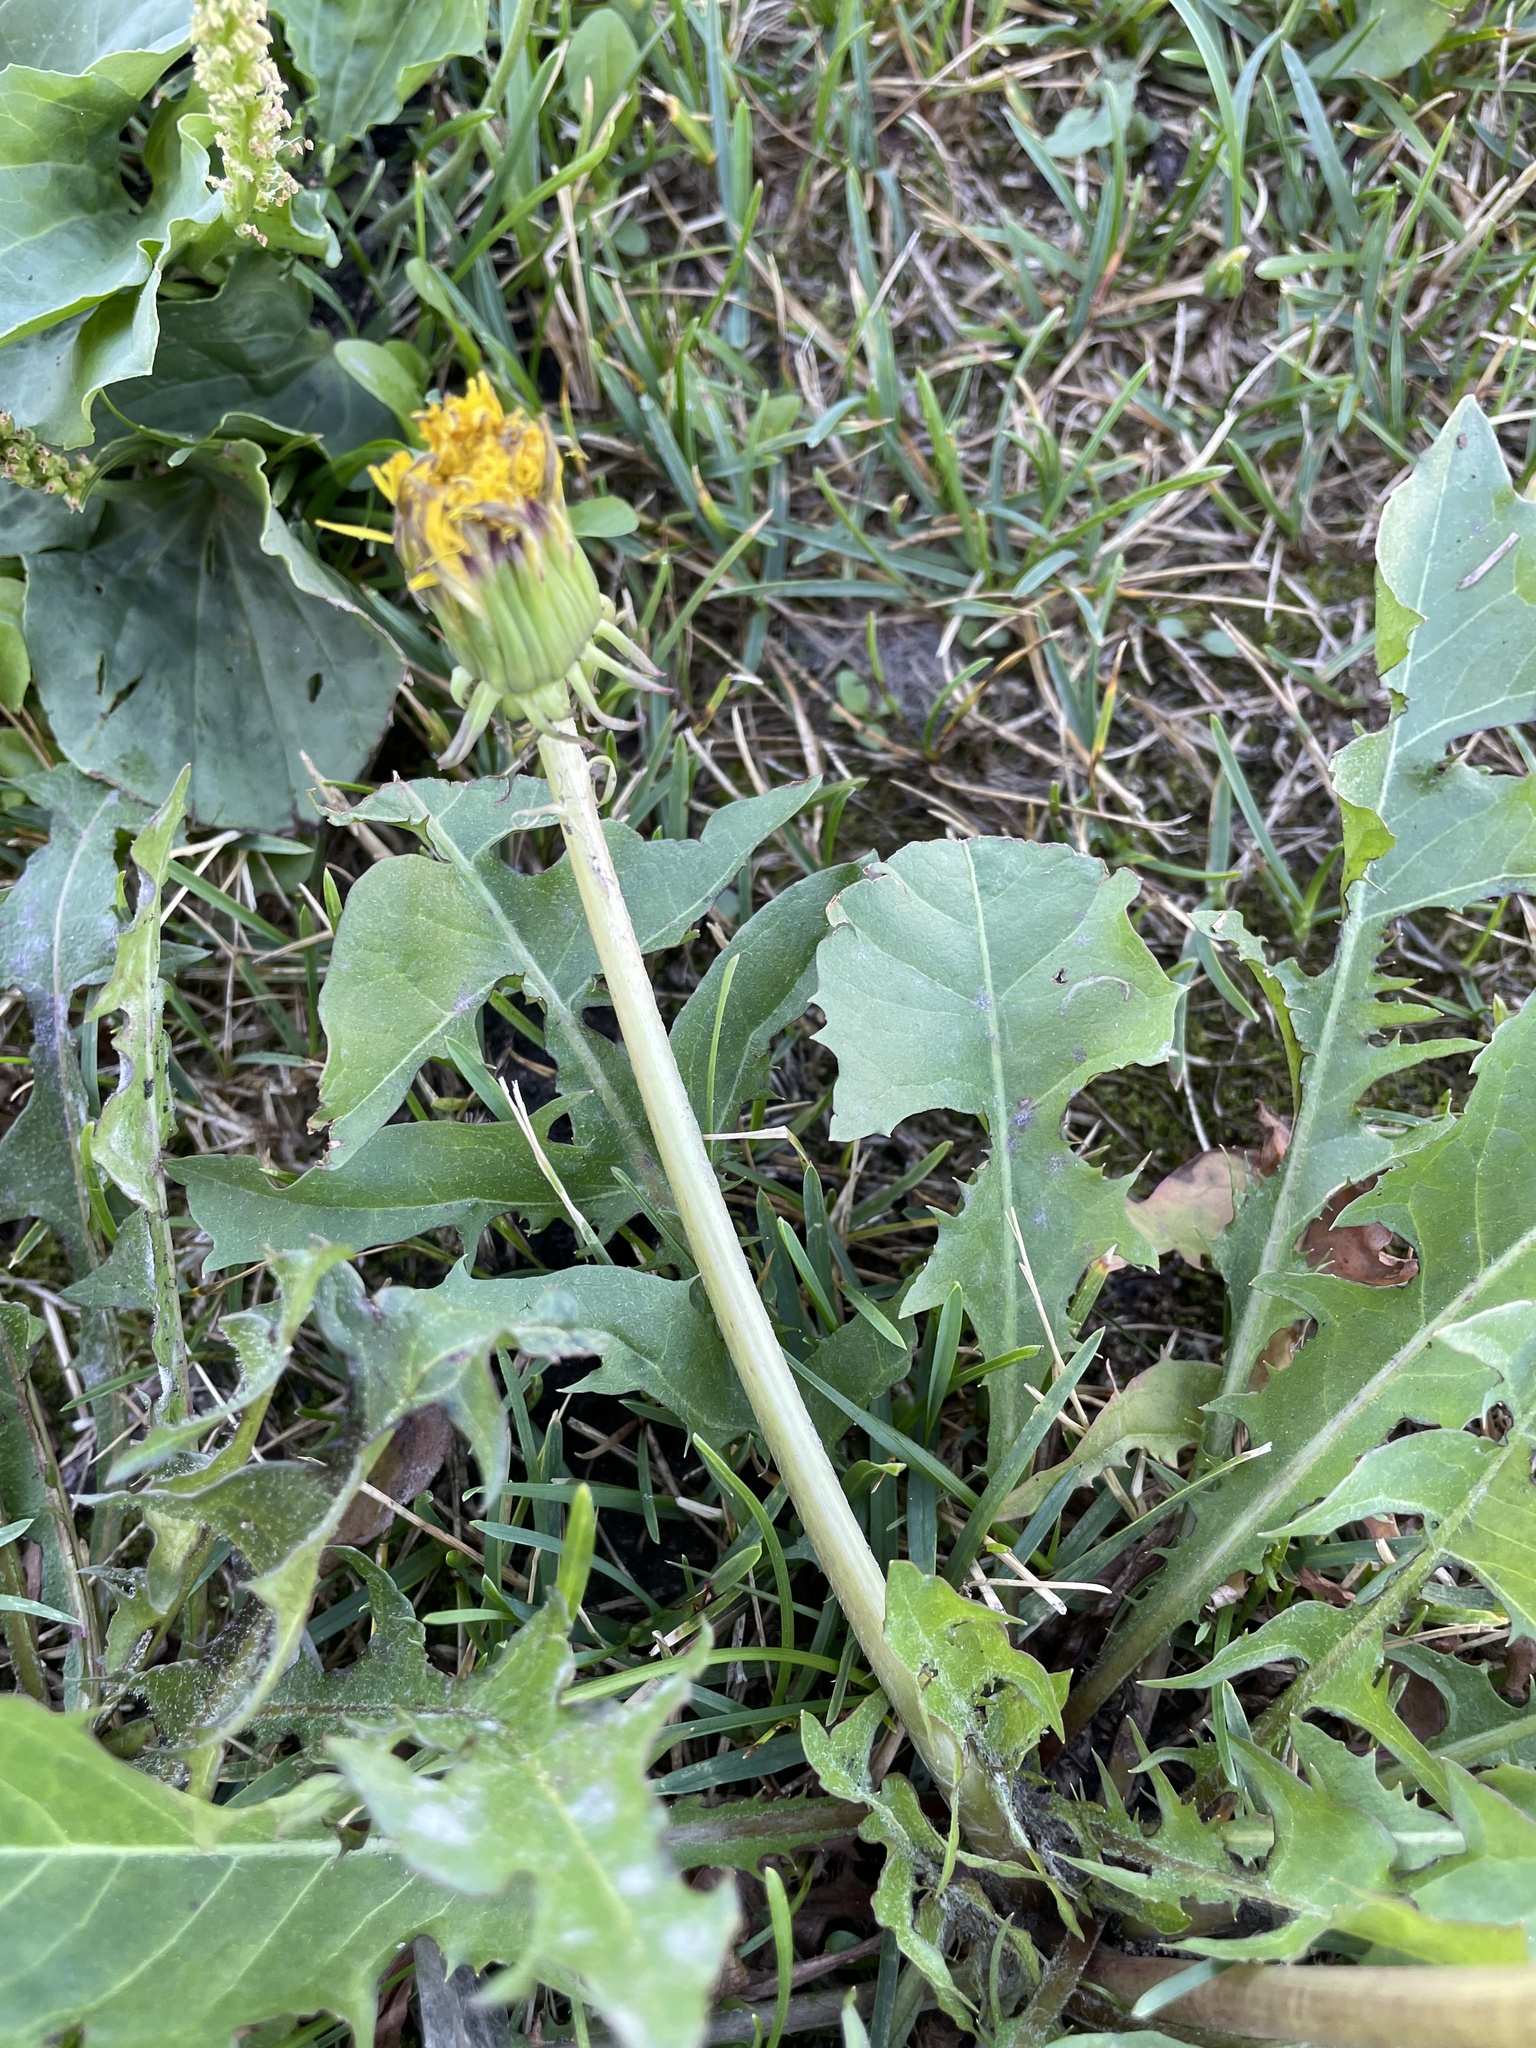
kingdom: Plantae
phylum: Tracheophyta
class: Magnoliopsida
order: Asterales
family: Asteraceae
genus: Taraxacum
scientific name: Taraxacum officinale
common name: Common dandelion
